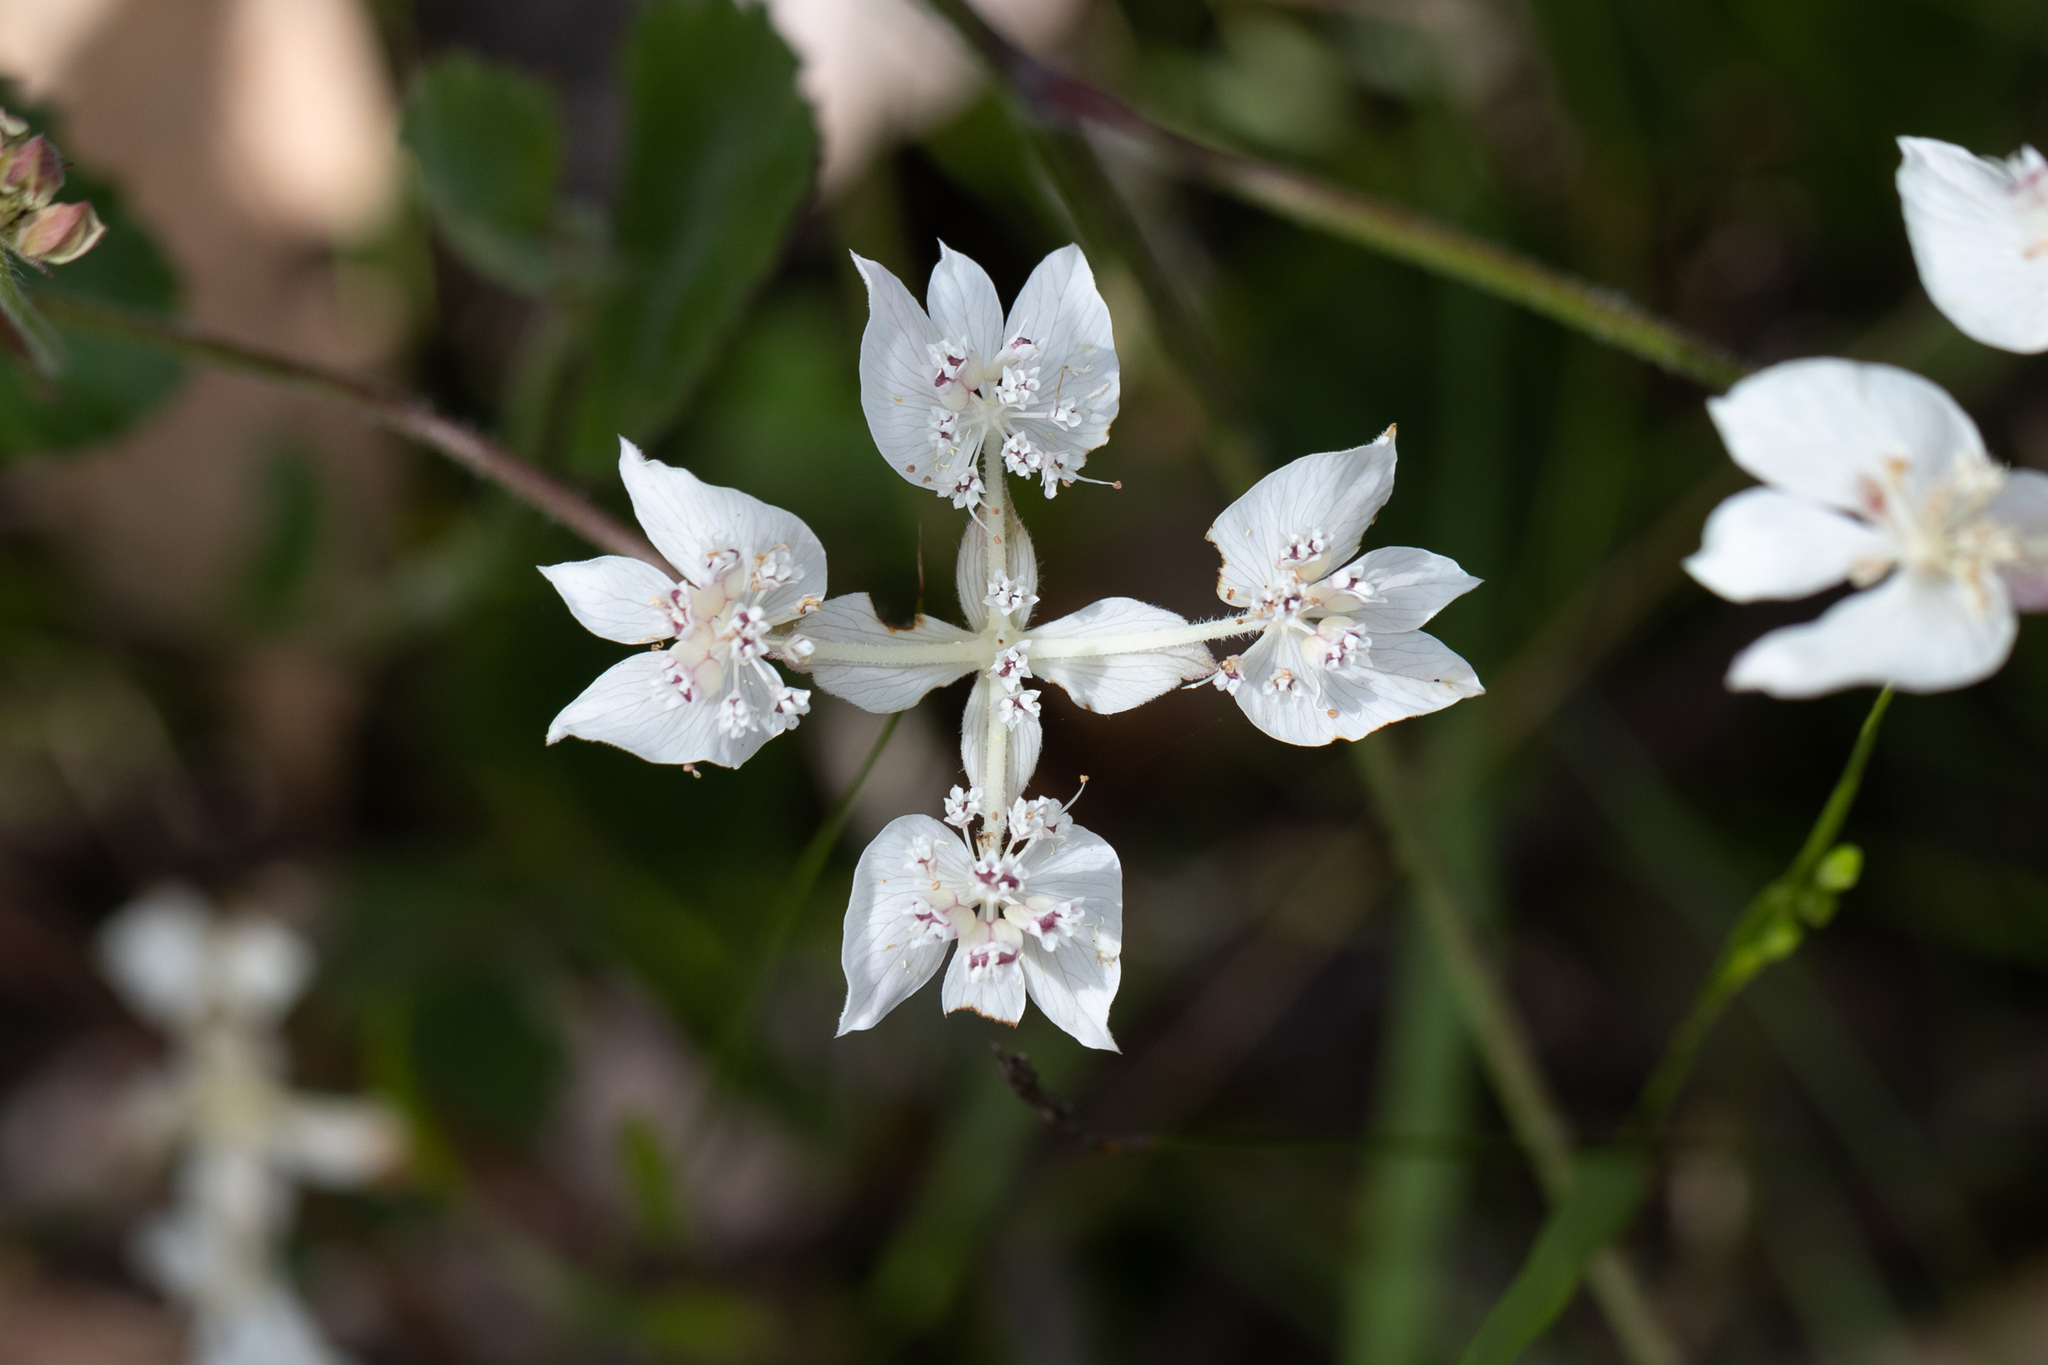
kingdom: Plantae
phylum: Tracheophyta
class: Magnoliopsida
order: Apiales
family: Apiaceae
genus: Xanthosia
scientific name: Xanthosia rotundifolia
